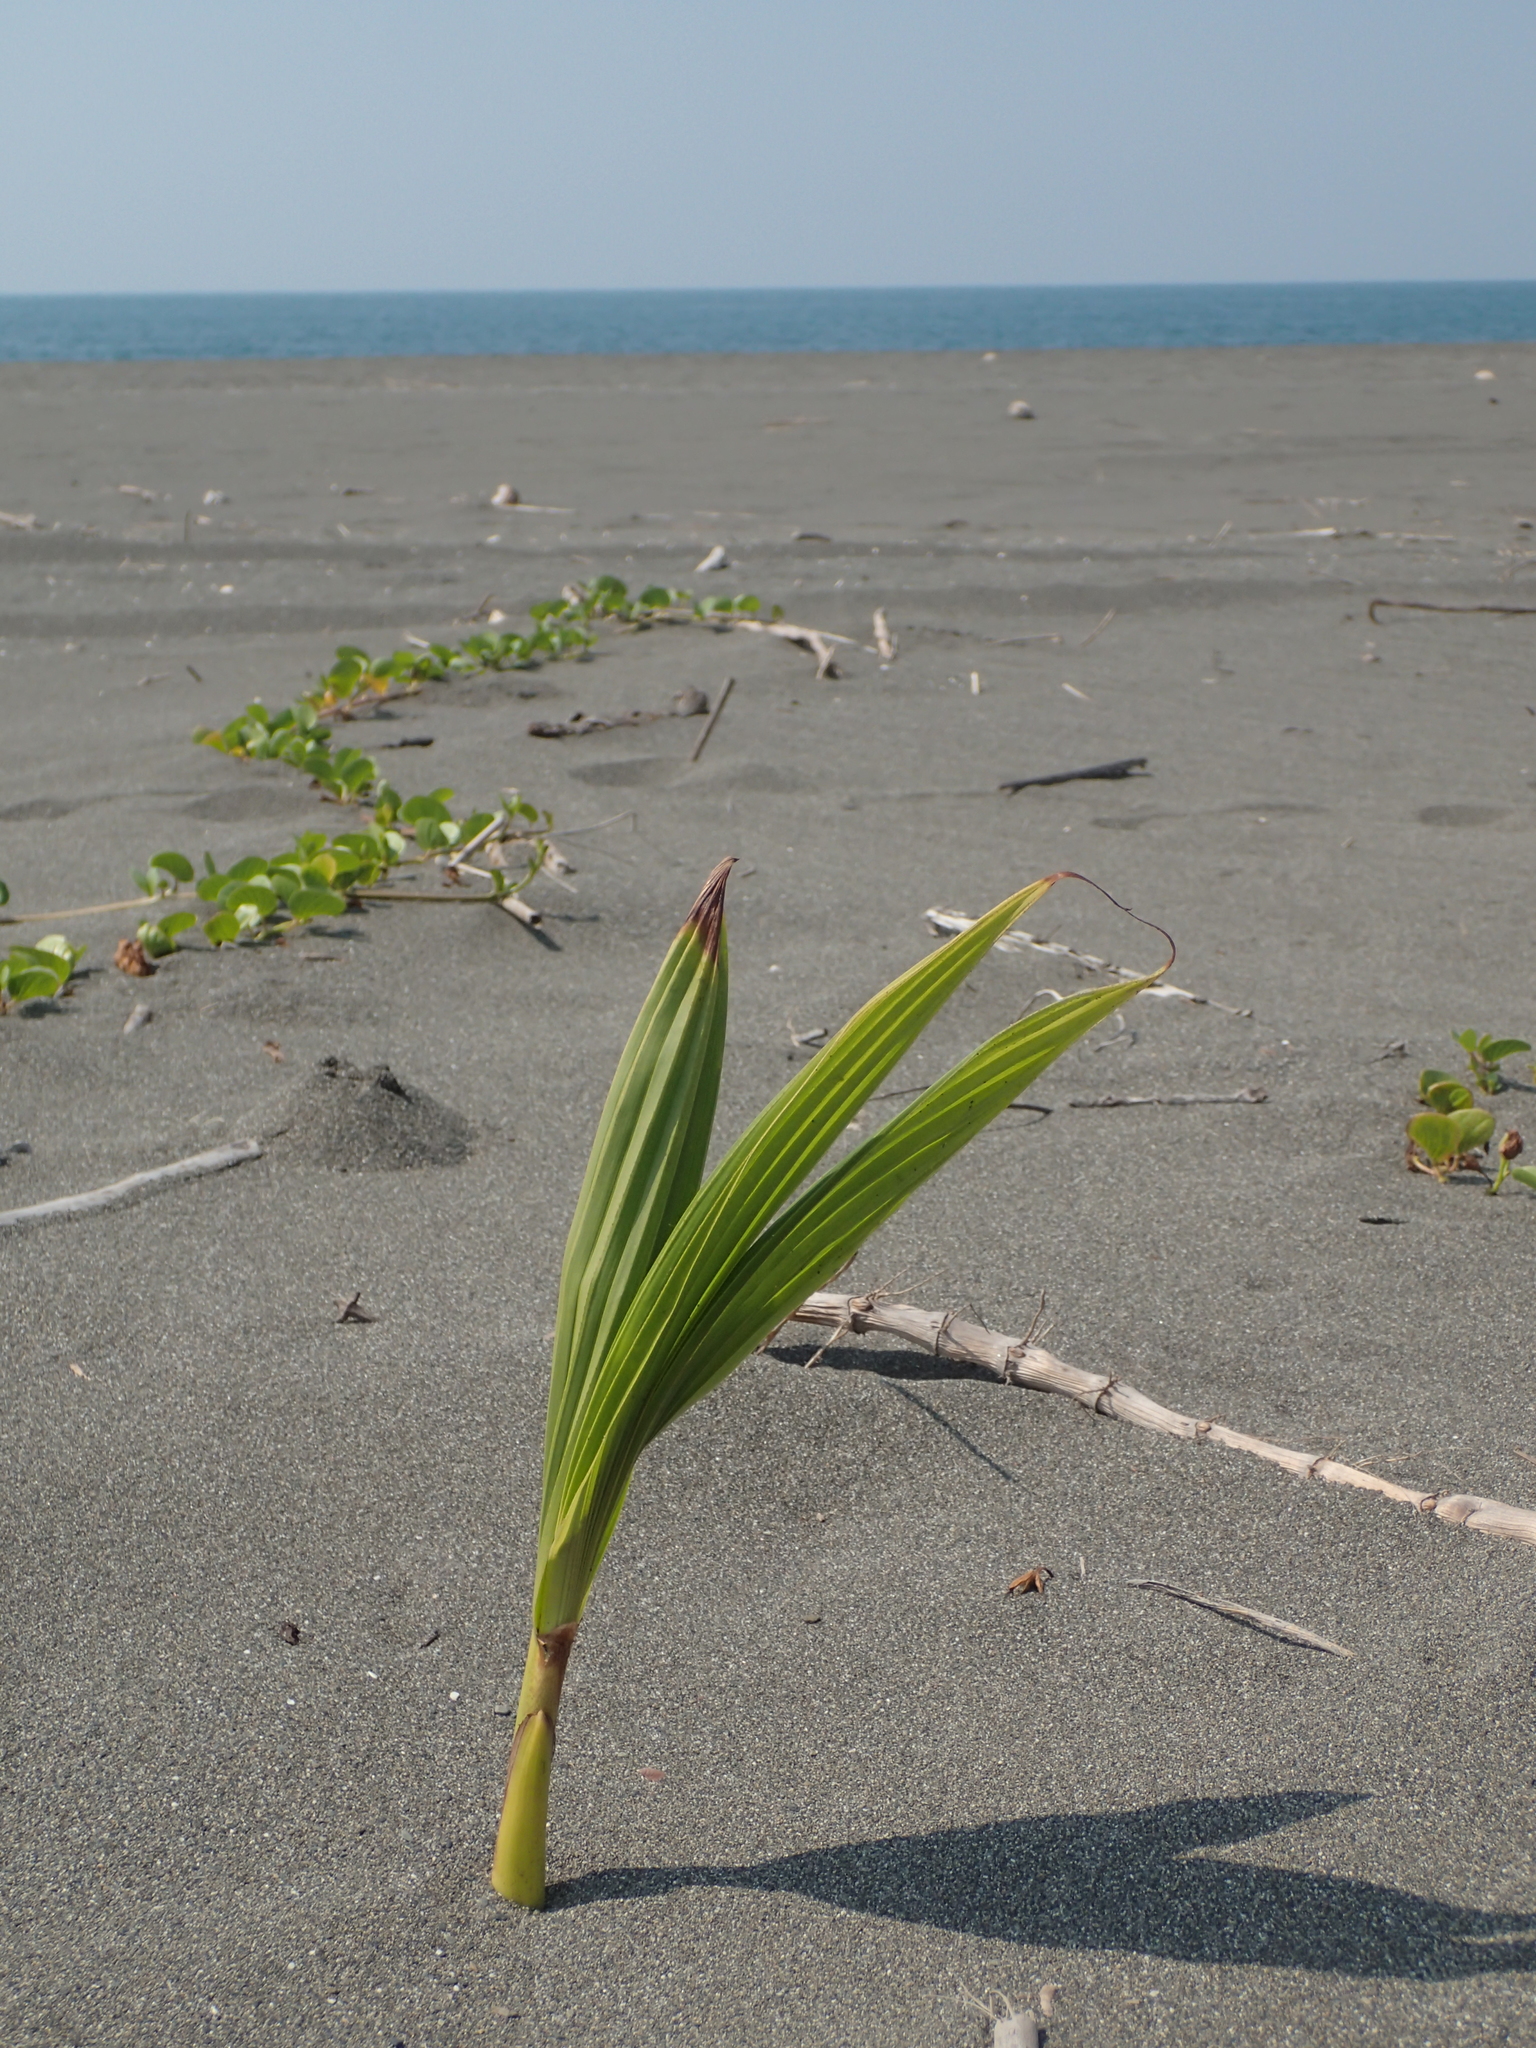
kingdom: Plantae
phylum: Tracheophyta
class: Liliopsida
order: Arecales
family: Arecaceae
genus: Cocos
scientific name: Cocos nucifera
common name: Coconut palm
